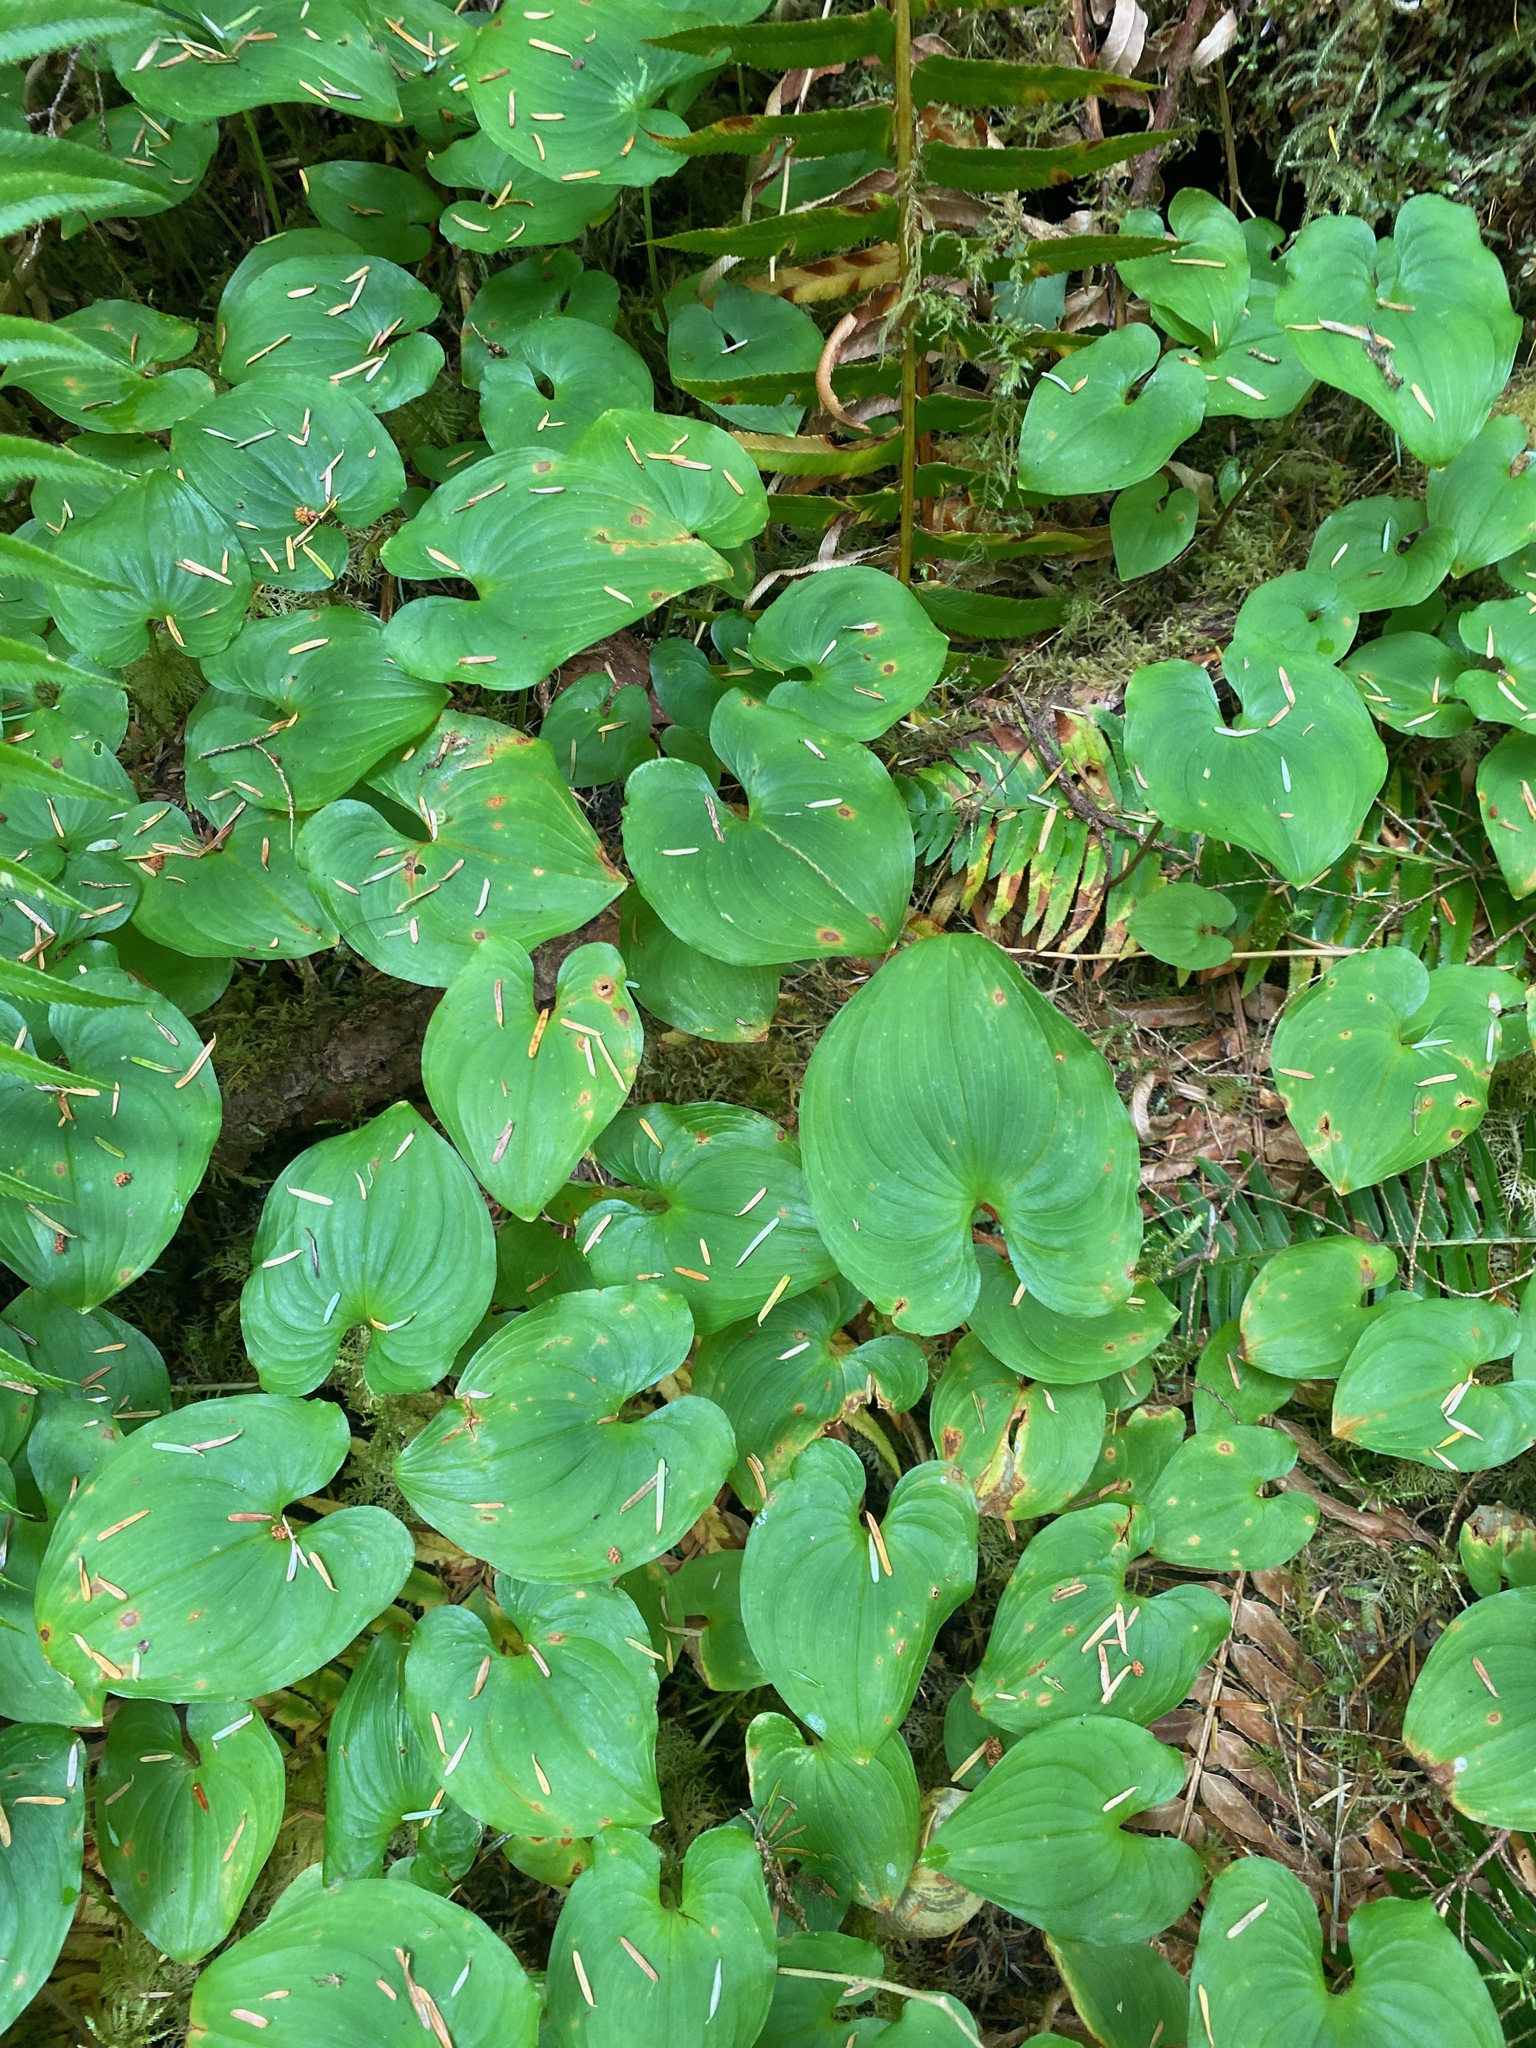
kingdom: Plantae
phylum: Tracheophyta
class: Liliopsida
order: Asparagales
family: Asparagaceae
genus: Maianthemum
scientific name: Maianthemum dilatatum
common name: False lily-of-the-valley
